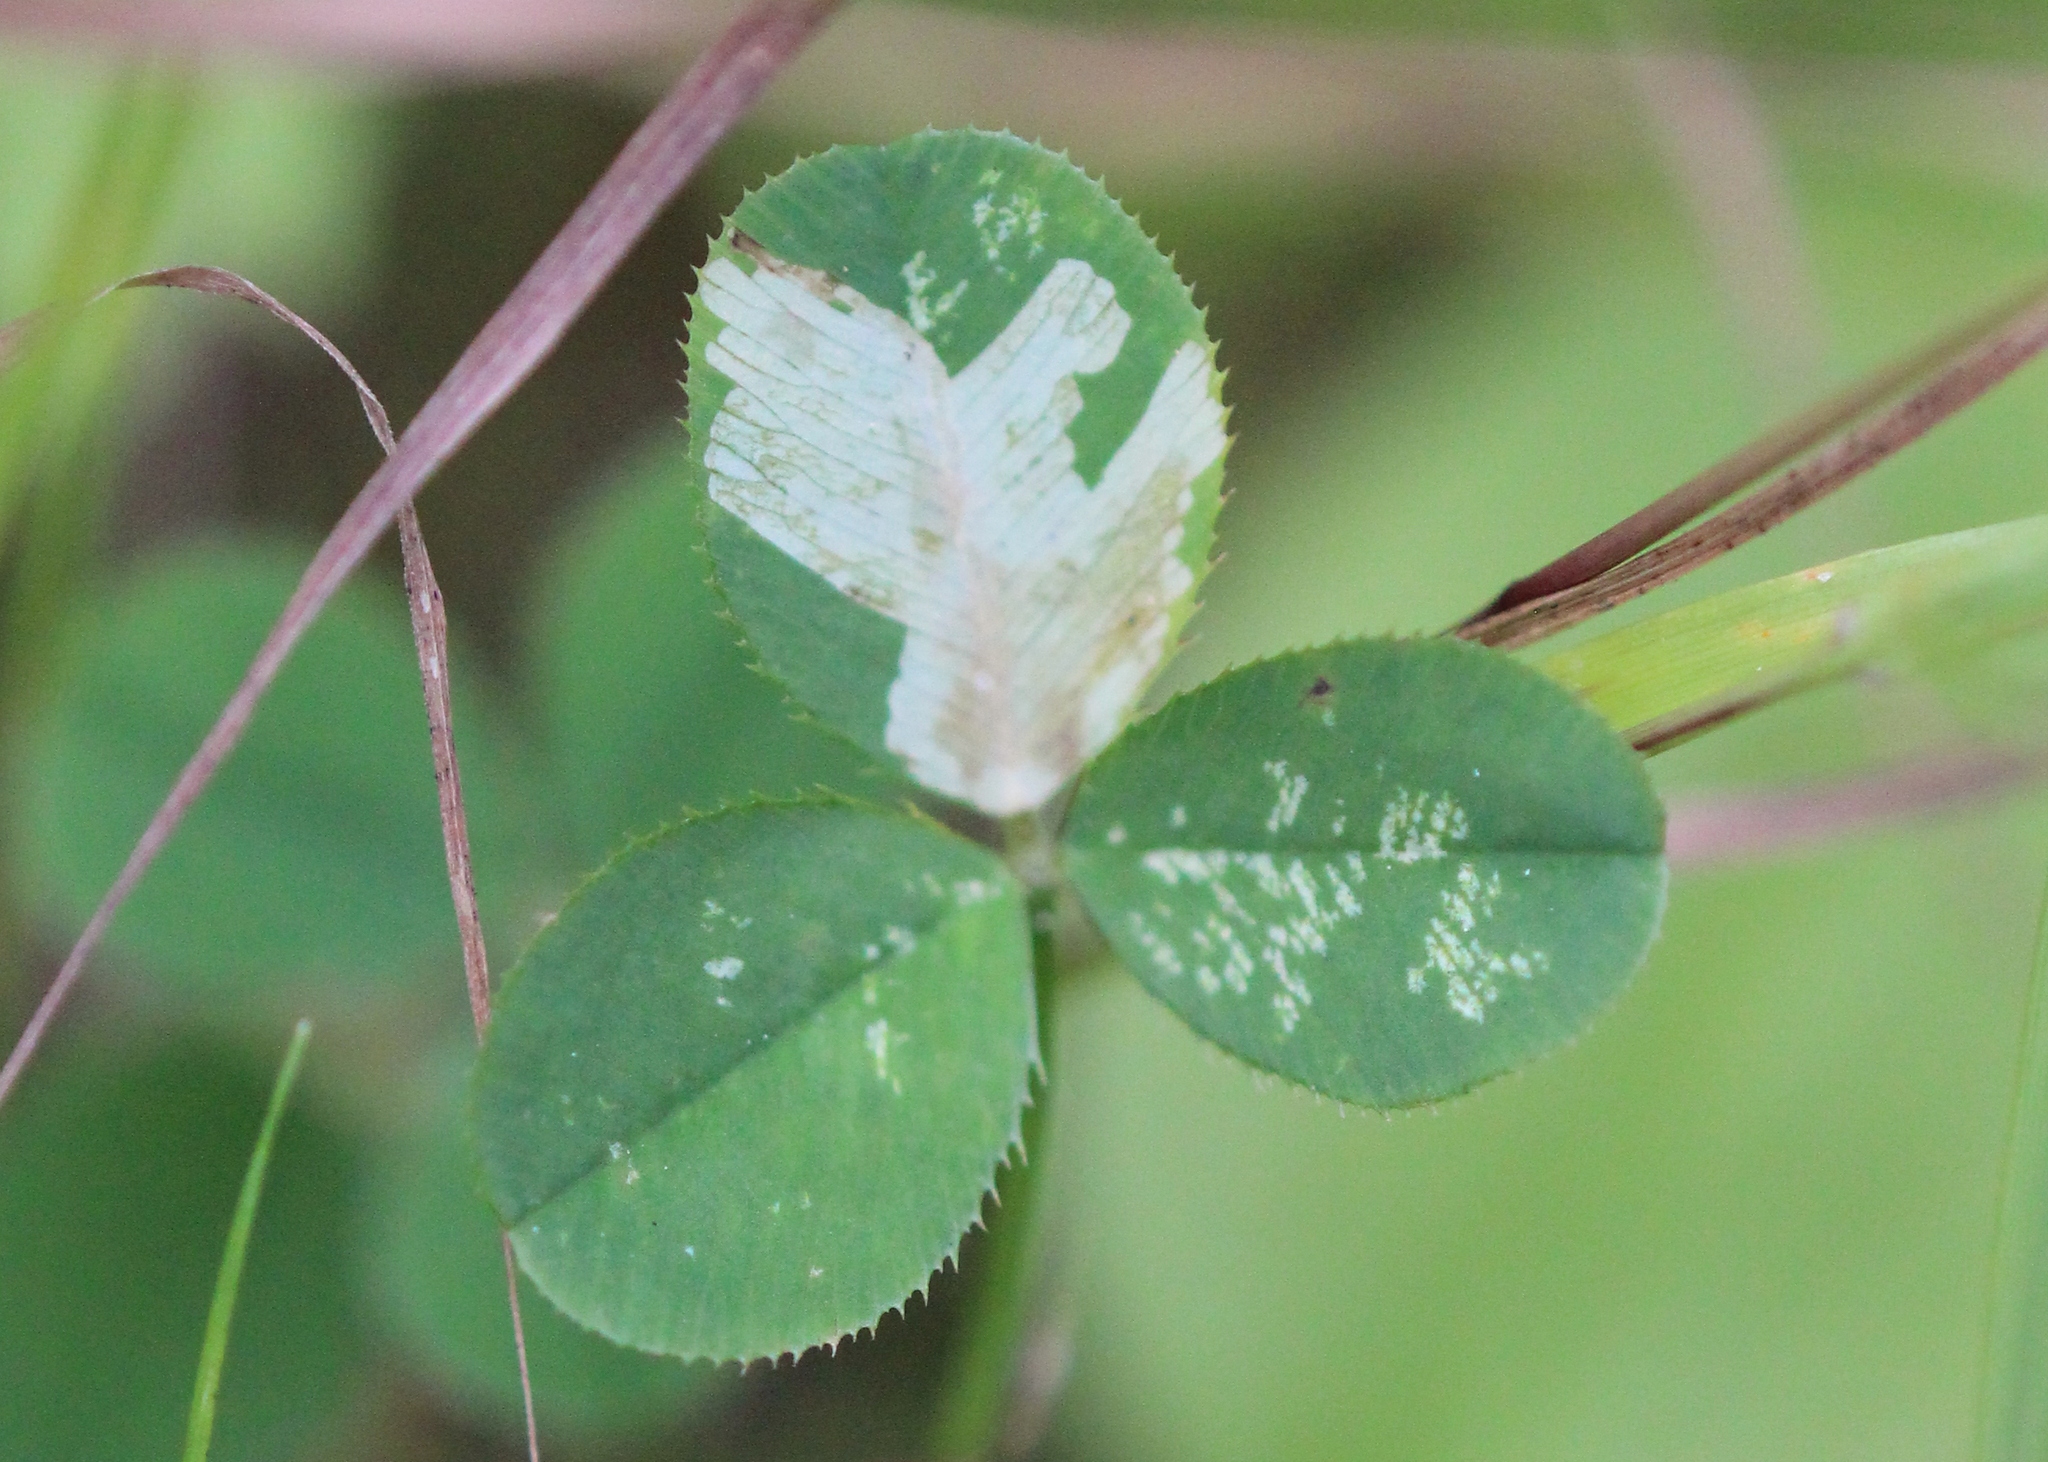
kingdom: Animalia
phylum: Arthropoda
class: Insecta
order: Diptera
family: Agromyzidae
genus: Liriomyza
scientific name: Liriomyza fricki
